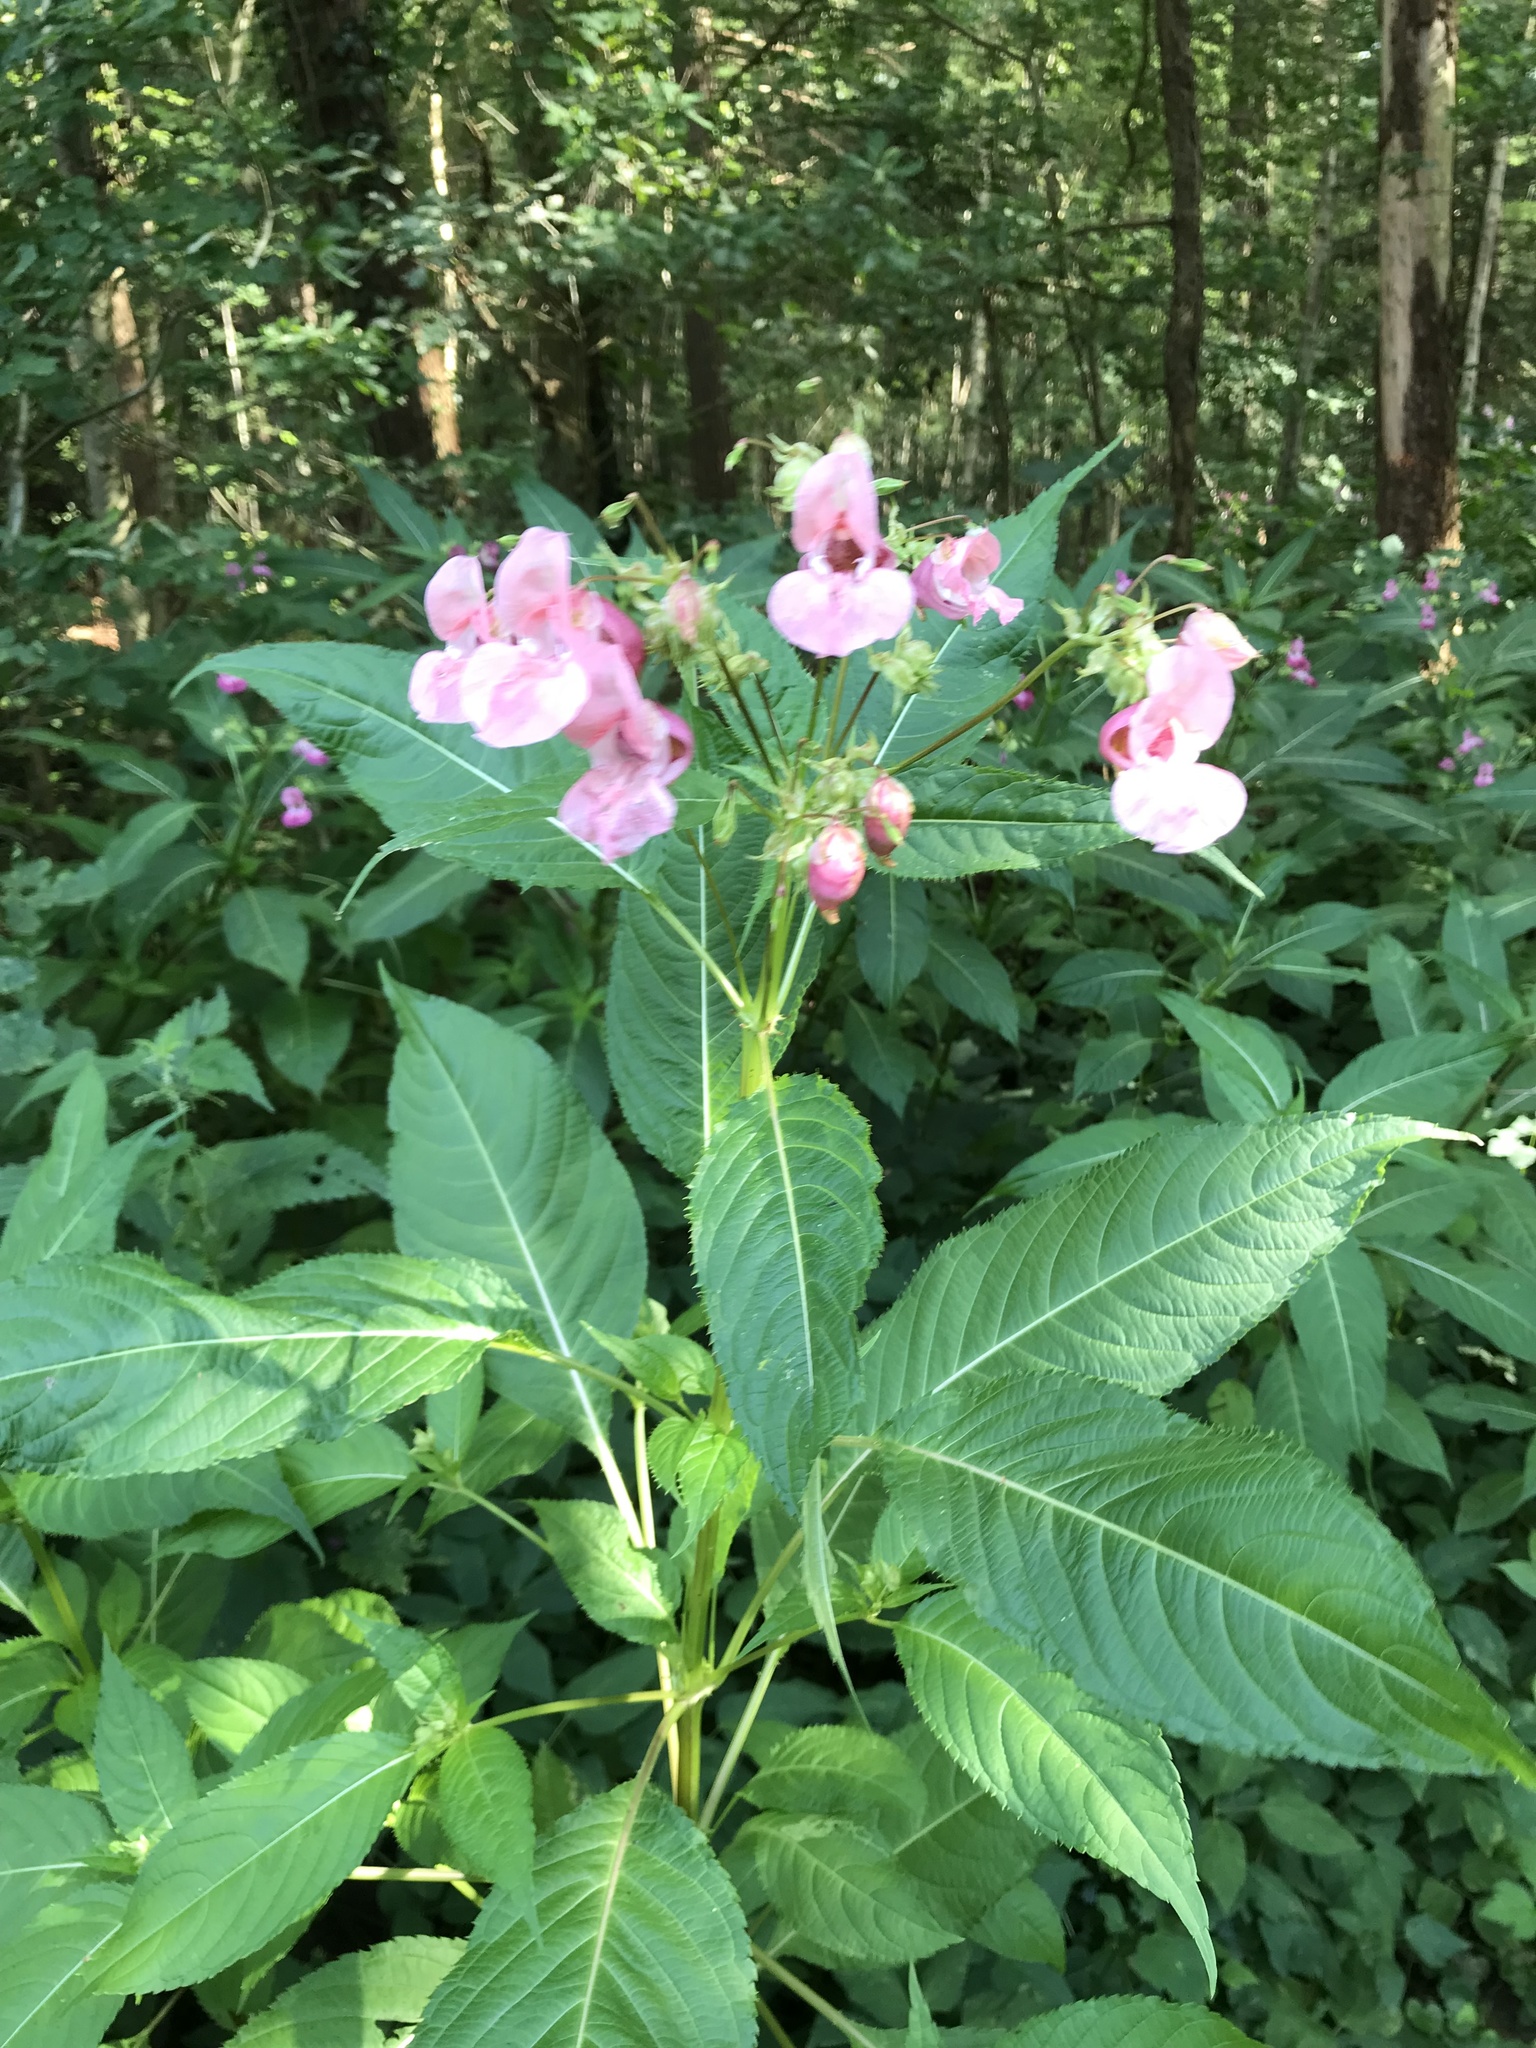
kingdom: Plantae
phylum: Tracheophyta
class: Magnoliopsida
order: Ericales
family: Balsaminaceae
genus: Impatiens
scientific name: Impatiens glandulifera
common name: Himalayan balsam
